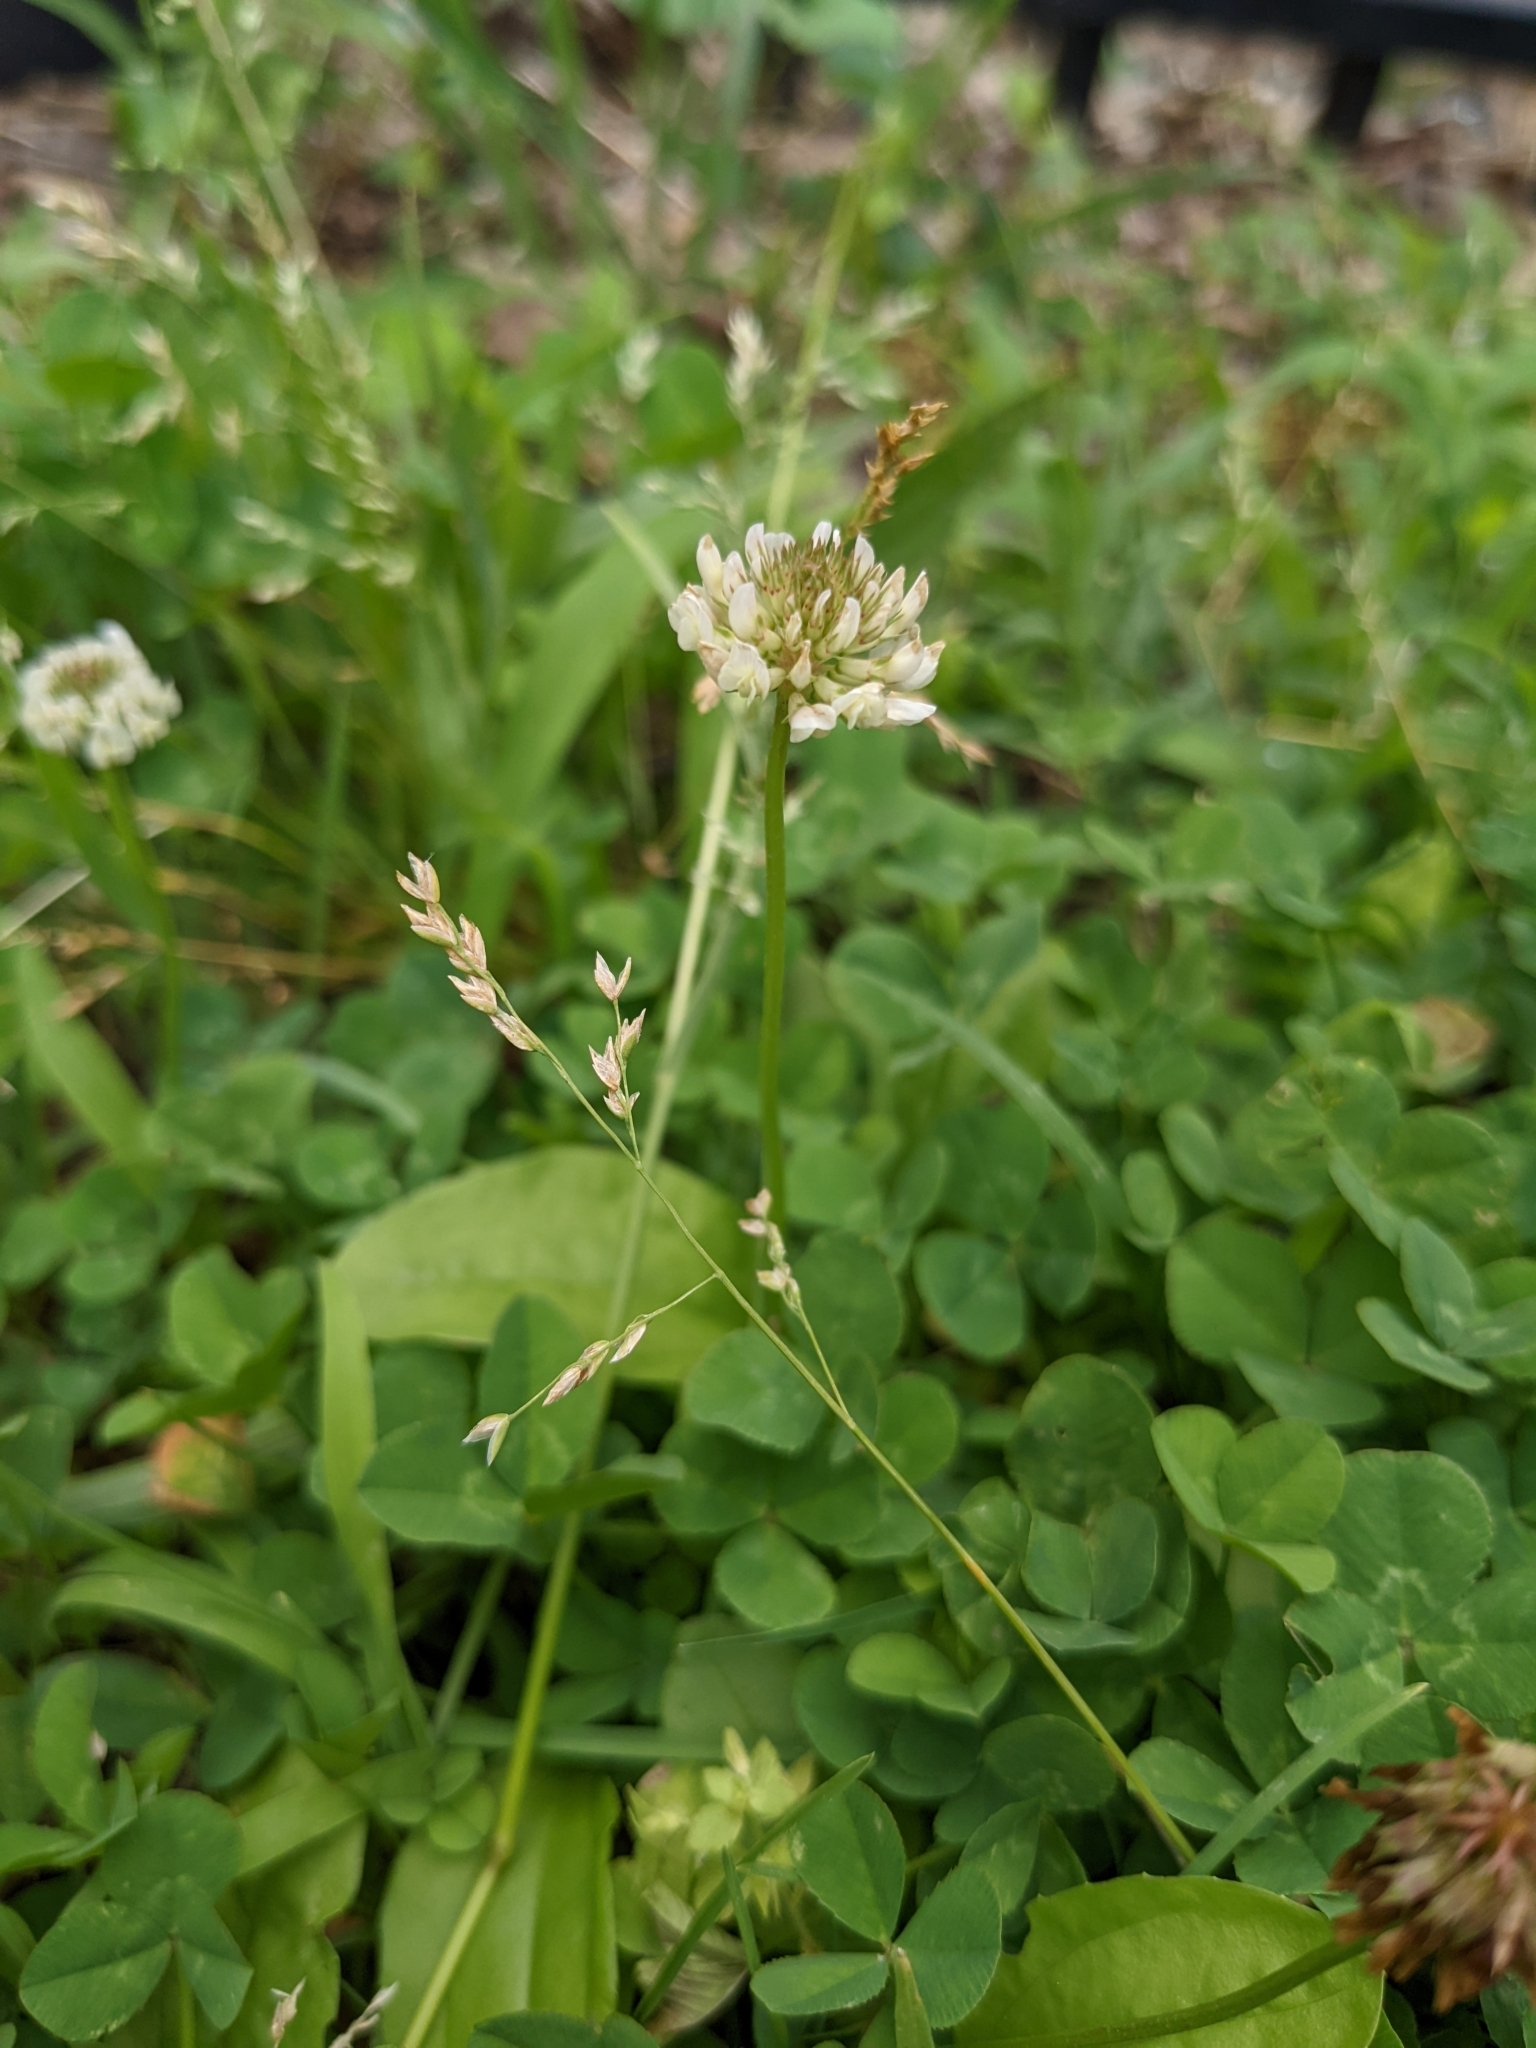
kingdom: Plantae
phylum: Tracheophyta
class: Magnoliopsida
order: Fabales
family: Fabaceae
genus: Trifolium
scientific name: Trifolium repens
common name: White clover
